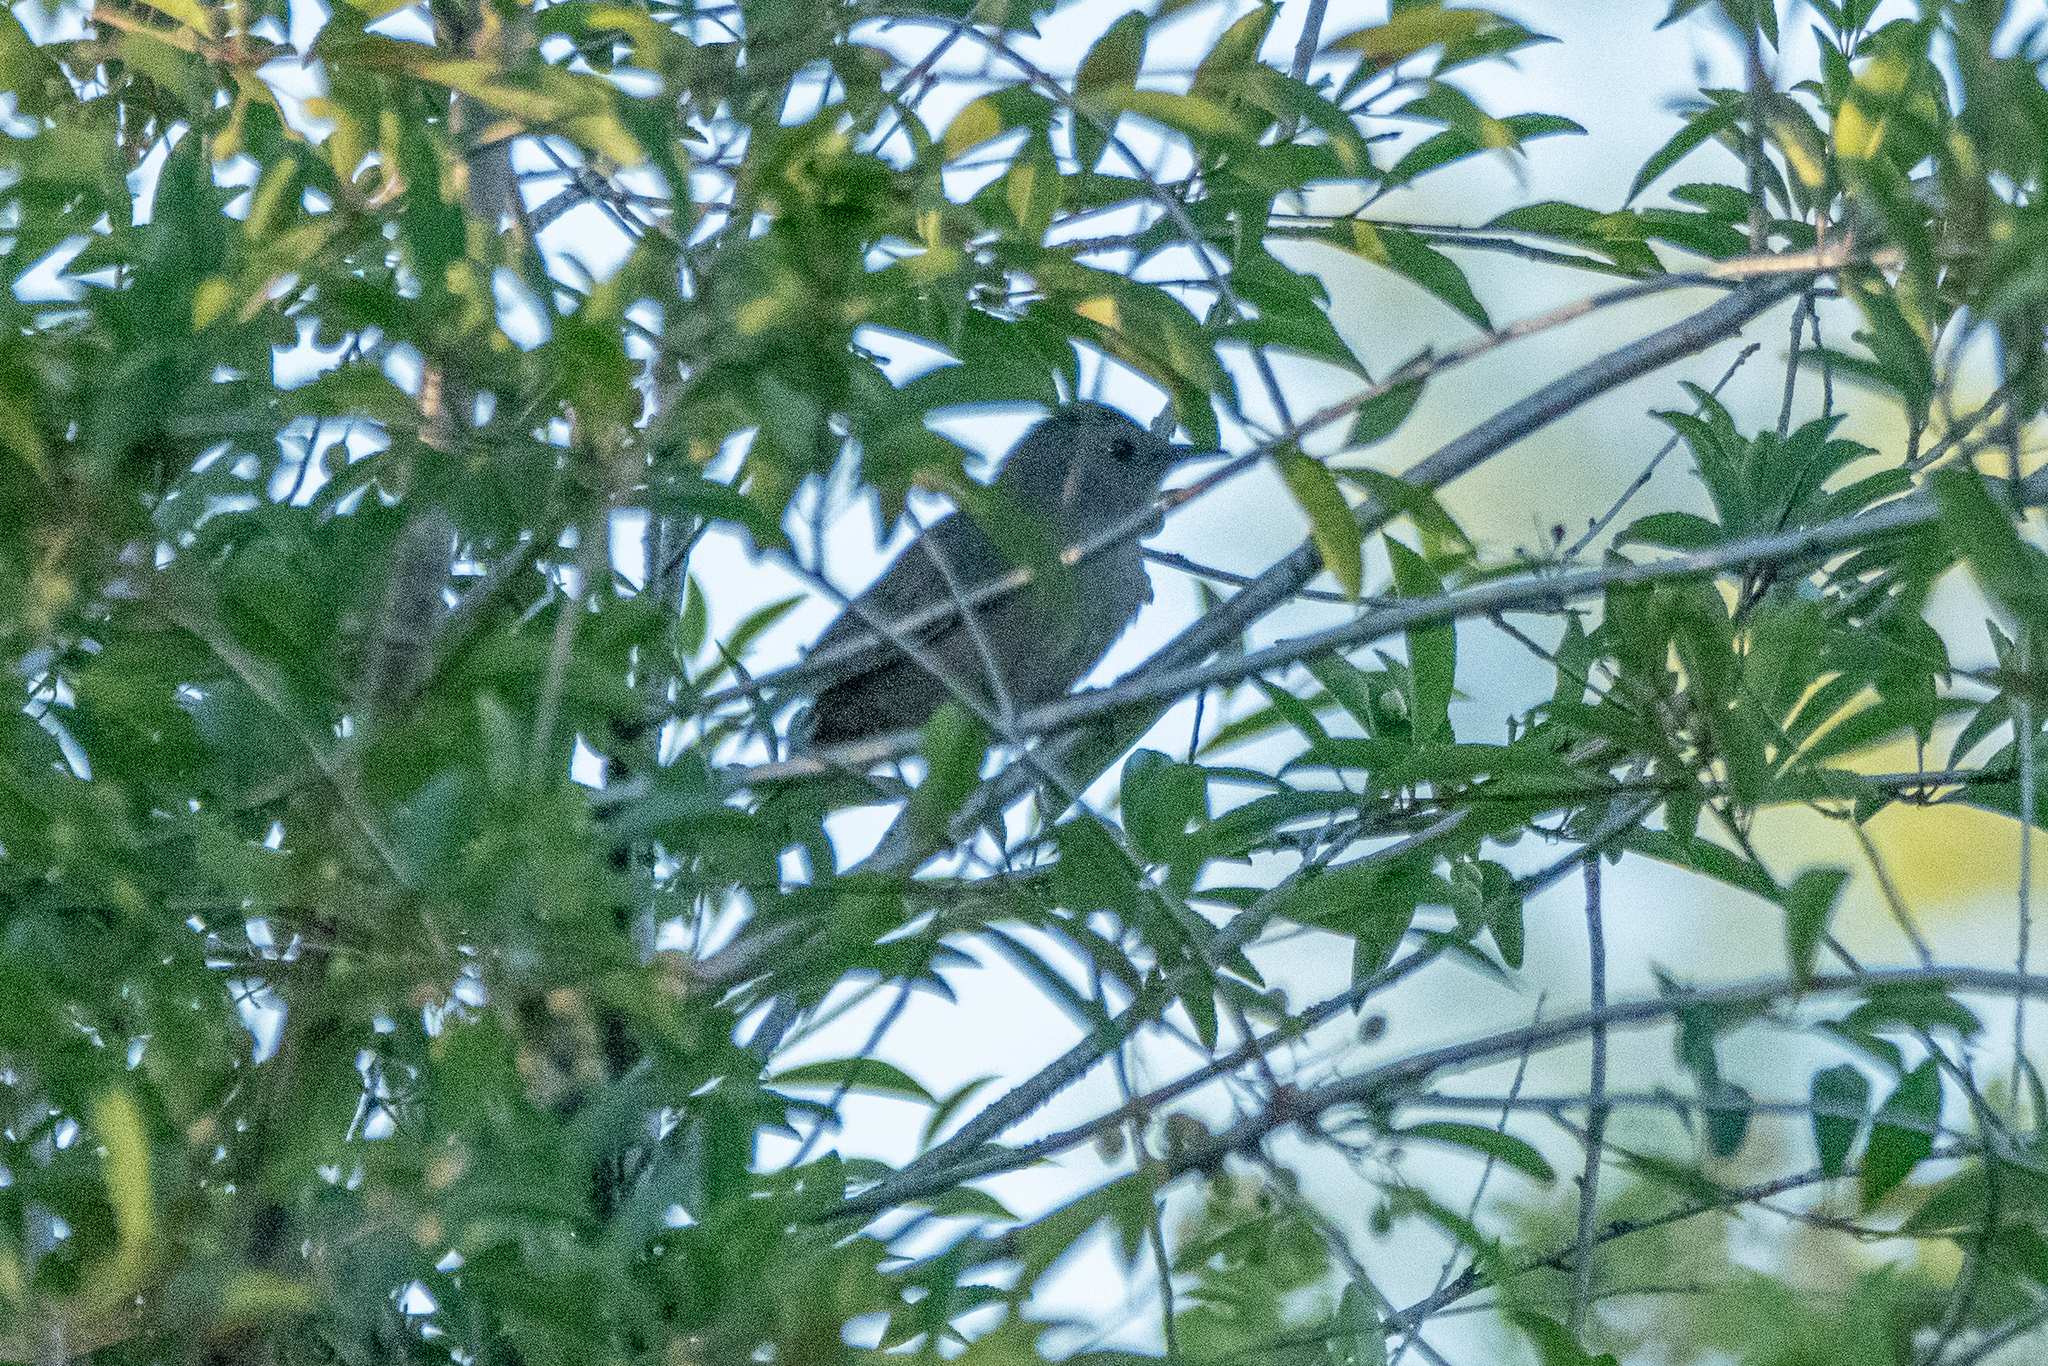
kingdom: Animalia
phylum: Chordata
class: Aves
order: Passeriformes
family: Mimidae
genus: Dumetella
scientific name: Dumetella carolinensis
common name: Gray catbird
